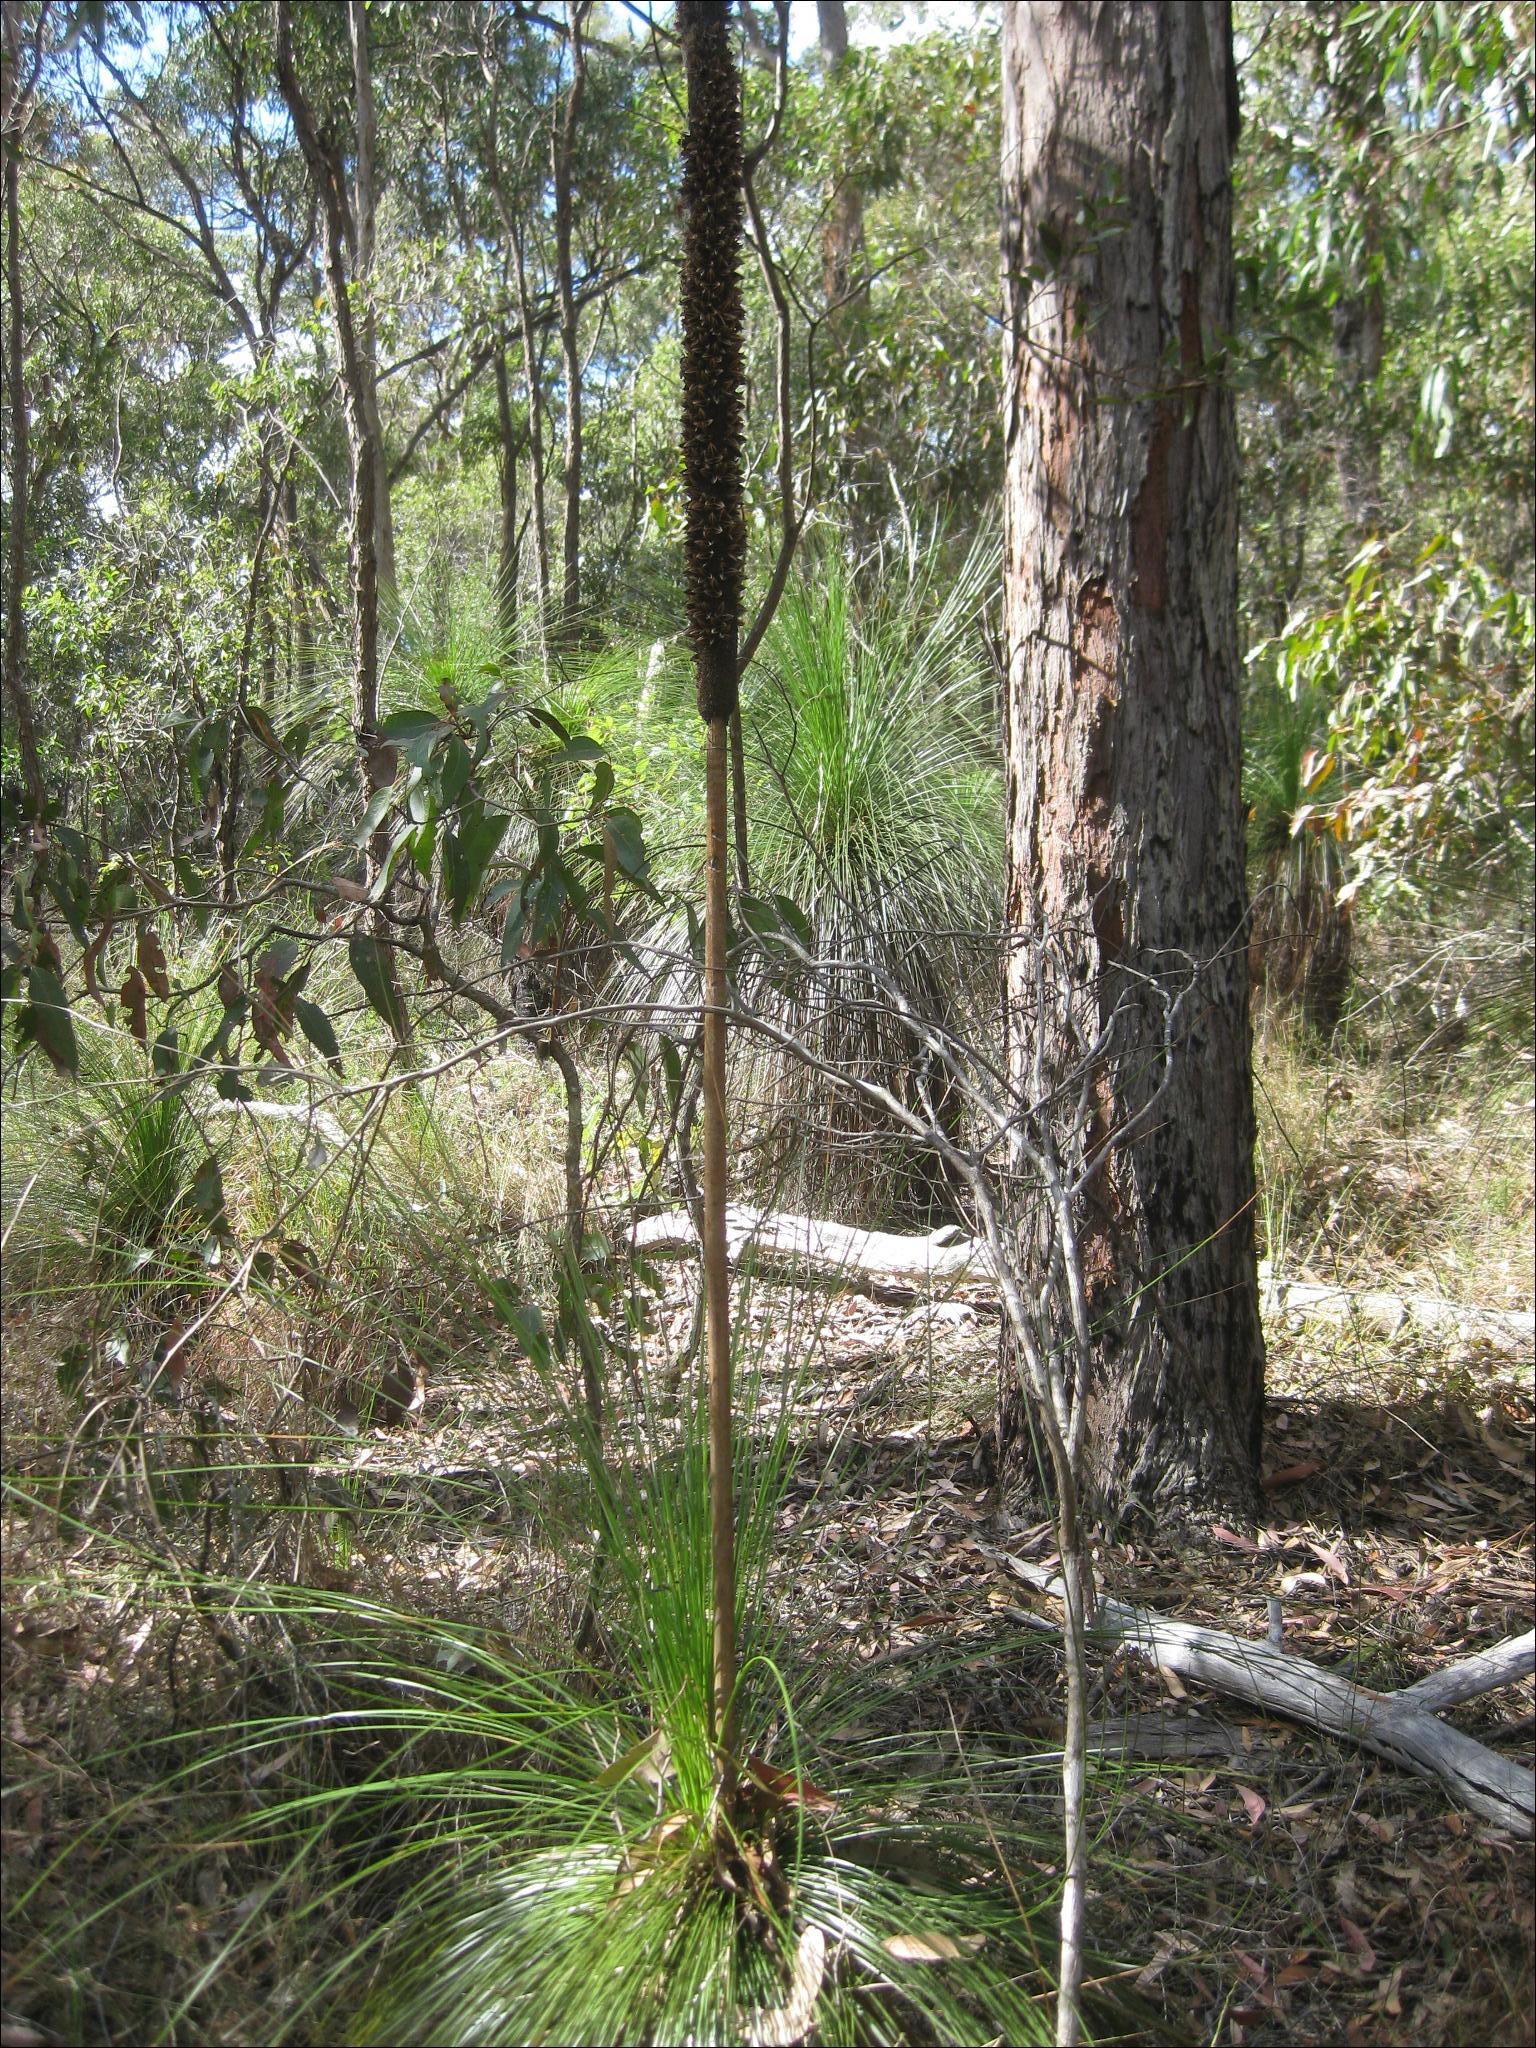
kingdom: Plantae
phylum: Tracheophyta
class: Liliopsida
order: Asparagales
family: Asphodelaceae
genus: Xanthorrhoea
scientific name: Xanthorrhoea johnsonii
